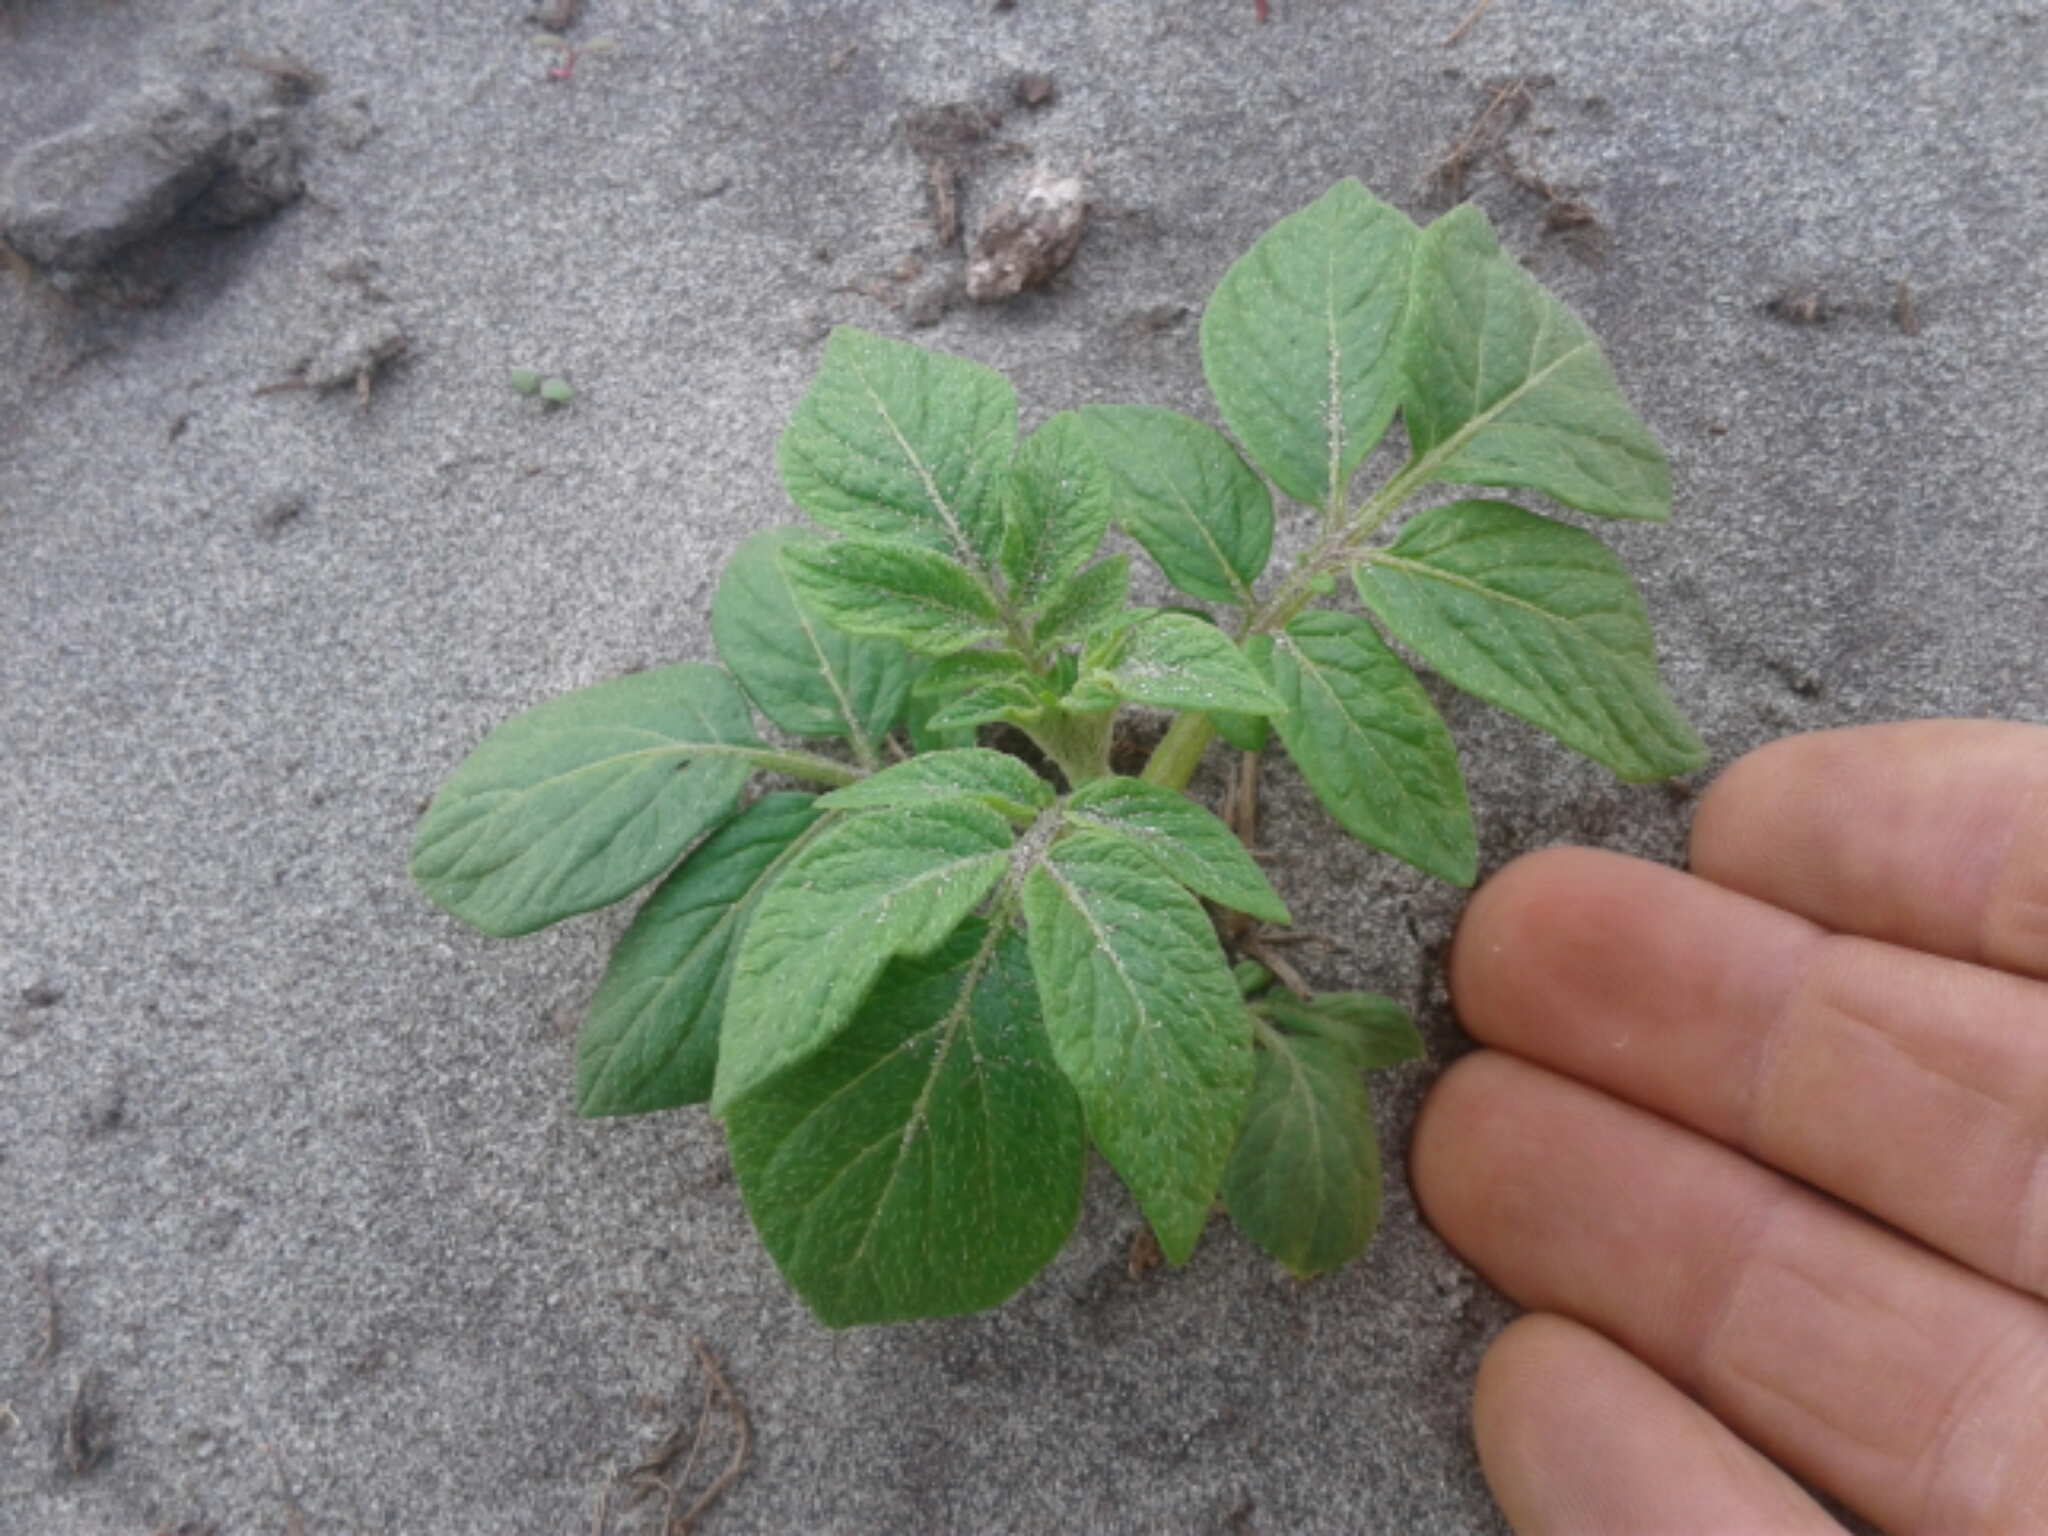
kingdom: Plantae
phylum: Tracheophyta
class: Magnoliopsida
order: Solanales
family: Solanaceae
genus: Solanum
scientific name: Solanum tuberosum
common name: Potato
